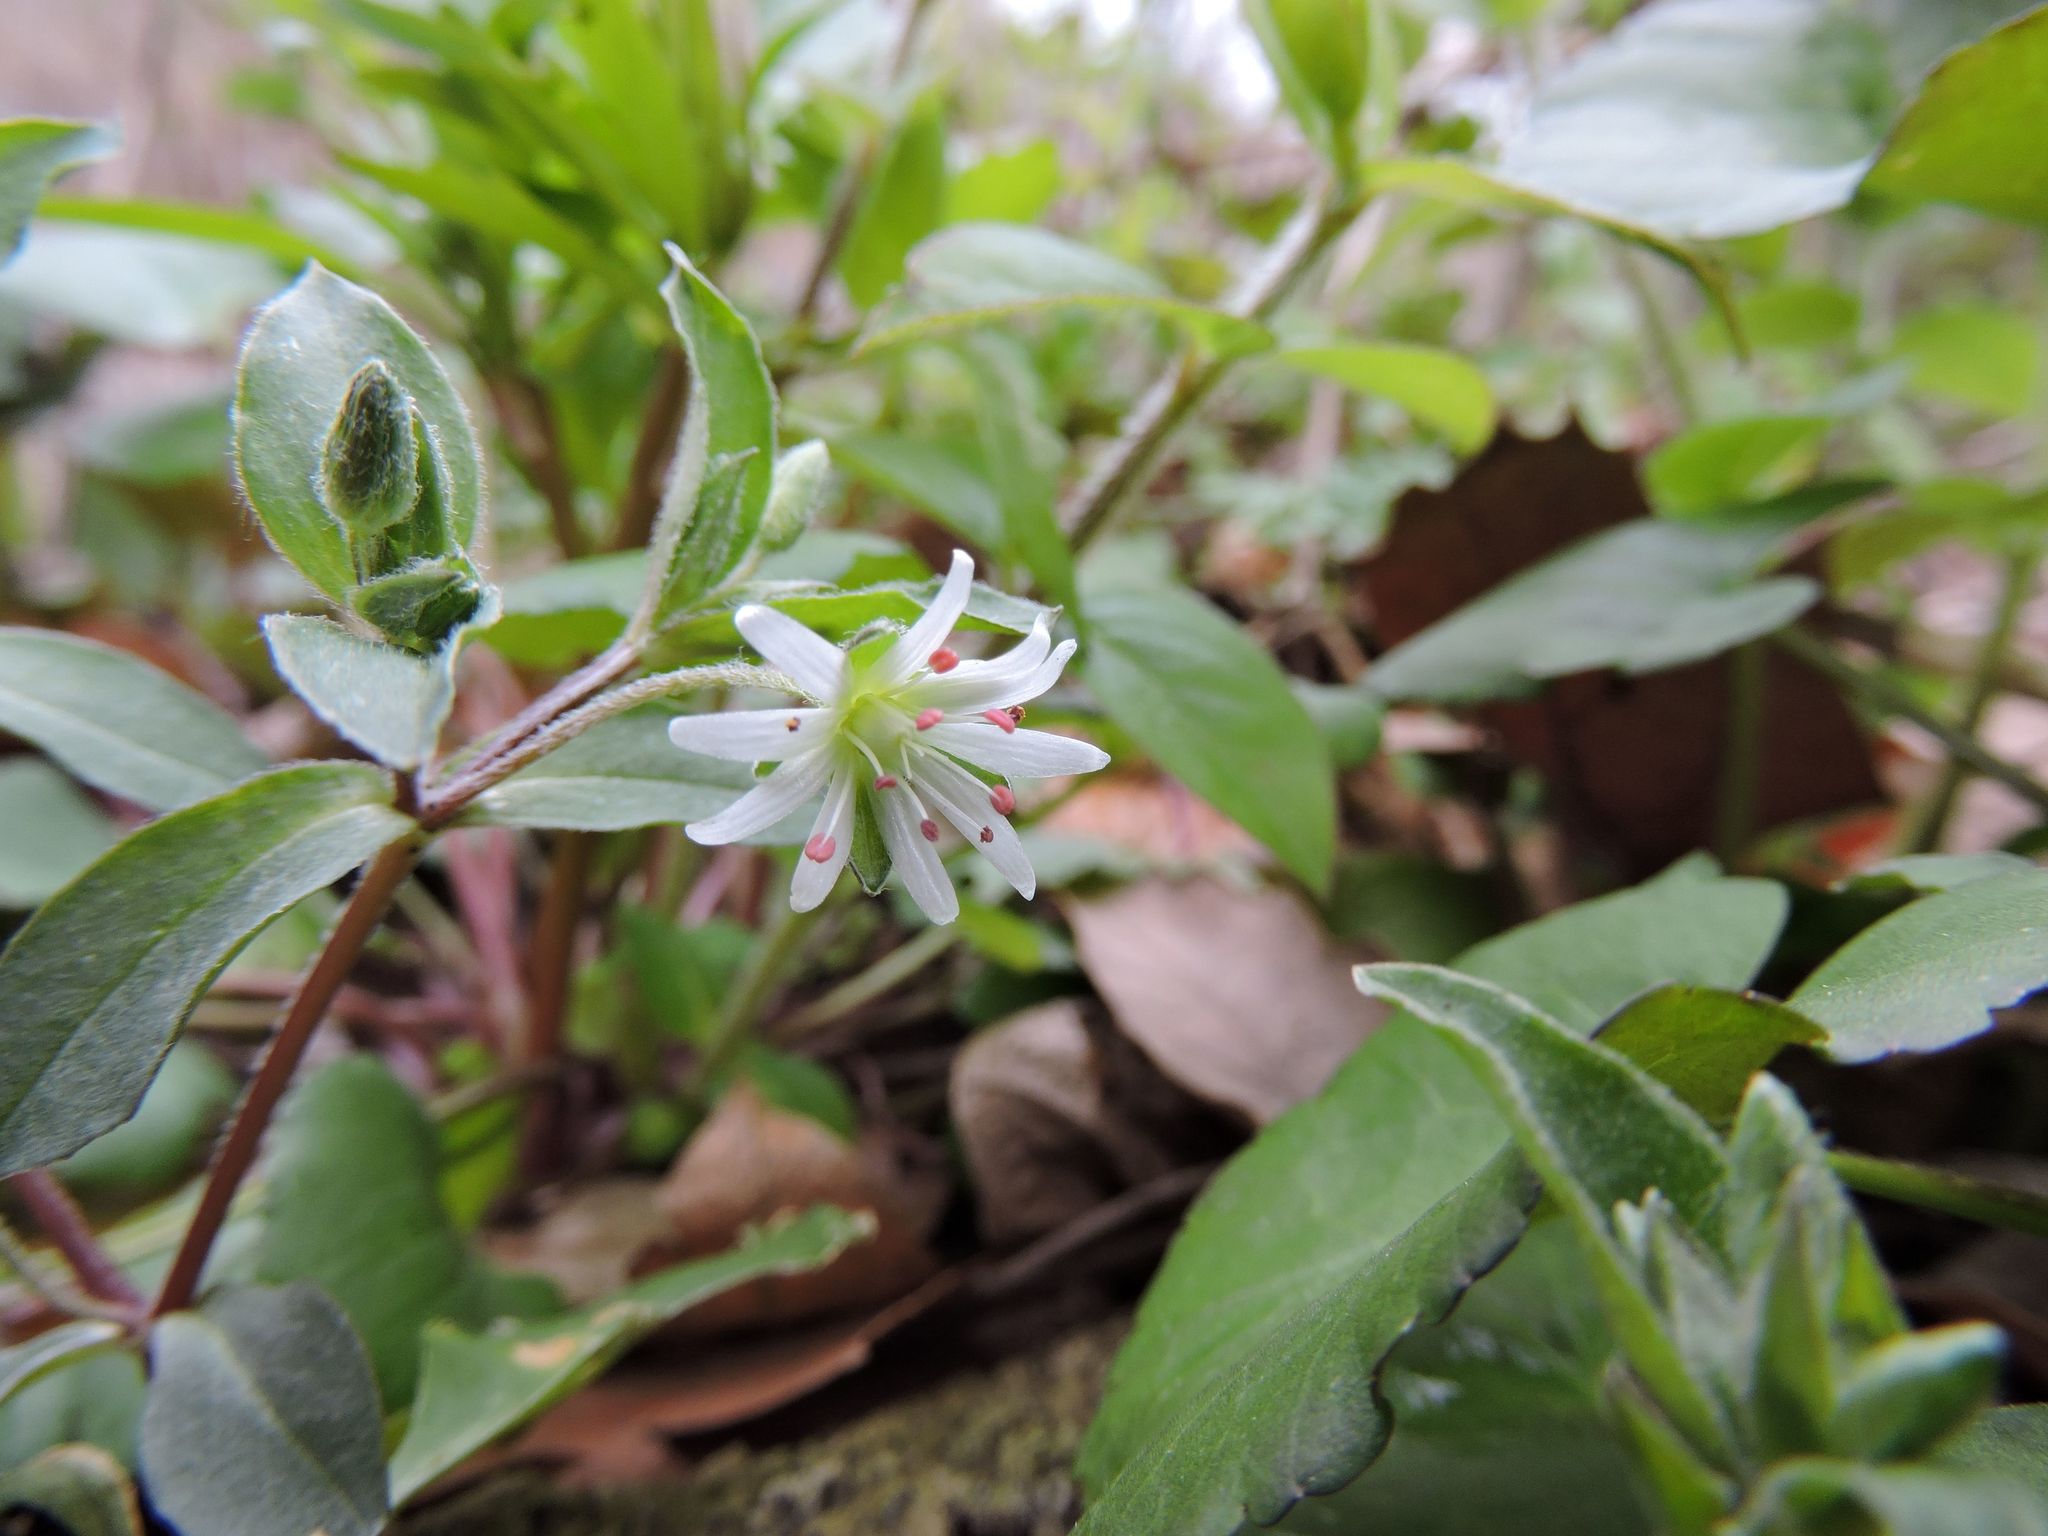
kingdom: Plantae
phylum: Tracheophyta
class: Magnoliopsida
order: Caryophyllales
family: Caryophyllaceae
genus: Stellaria
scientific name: Stellaria pubera
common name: Star chickweed
